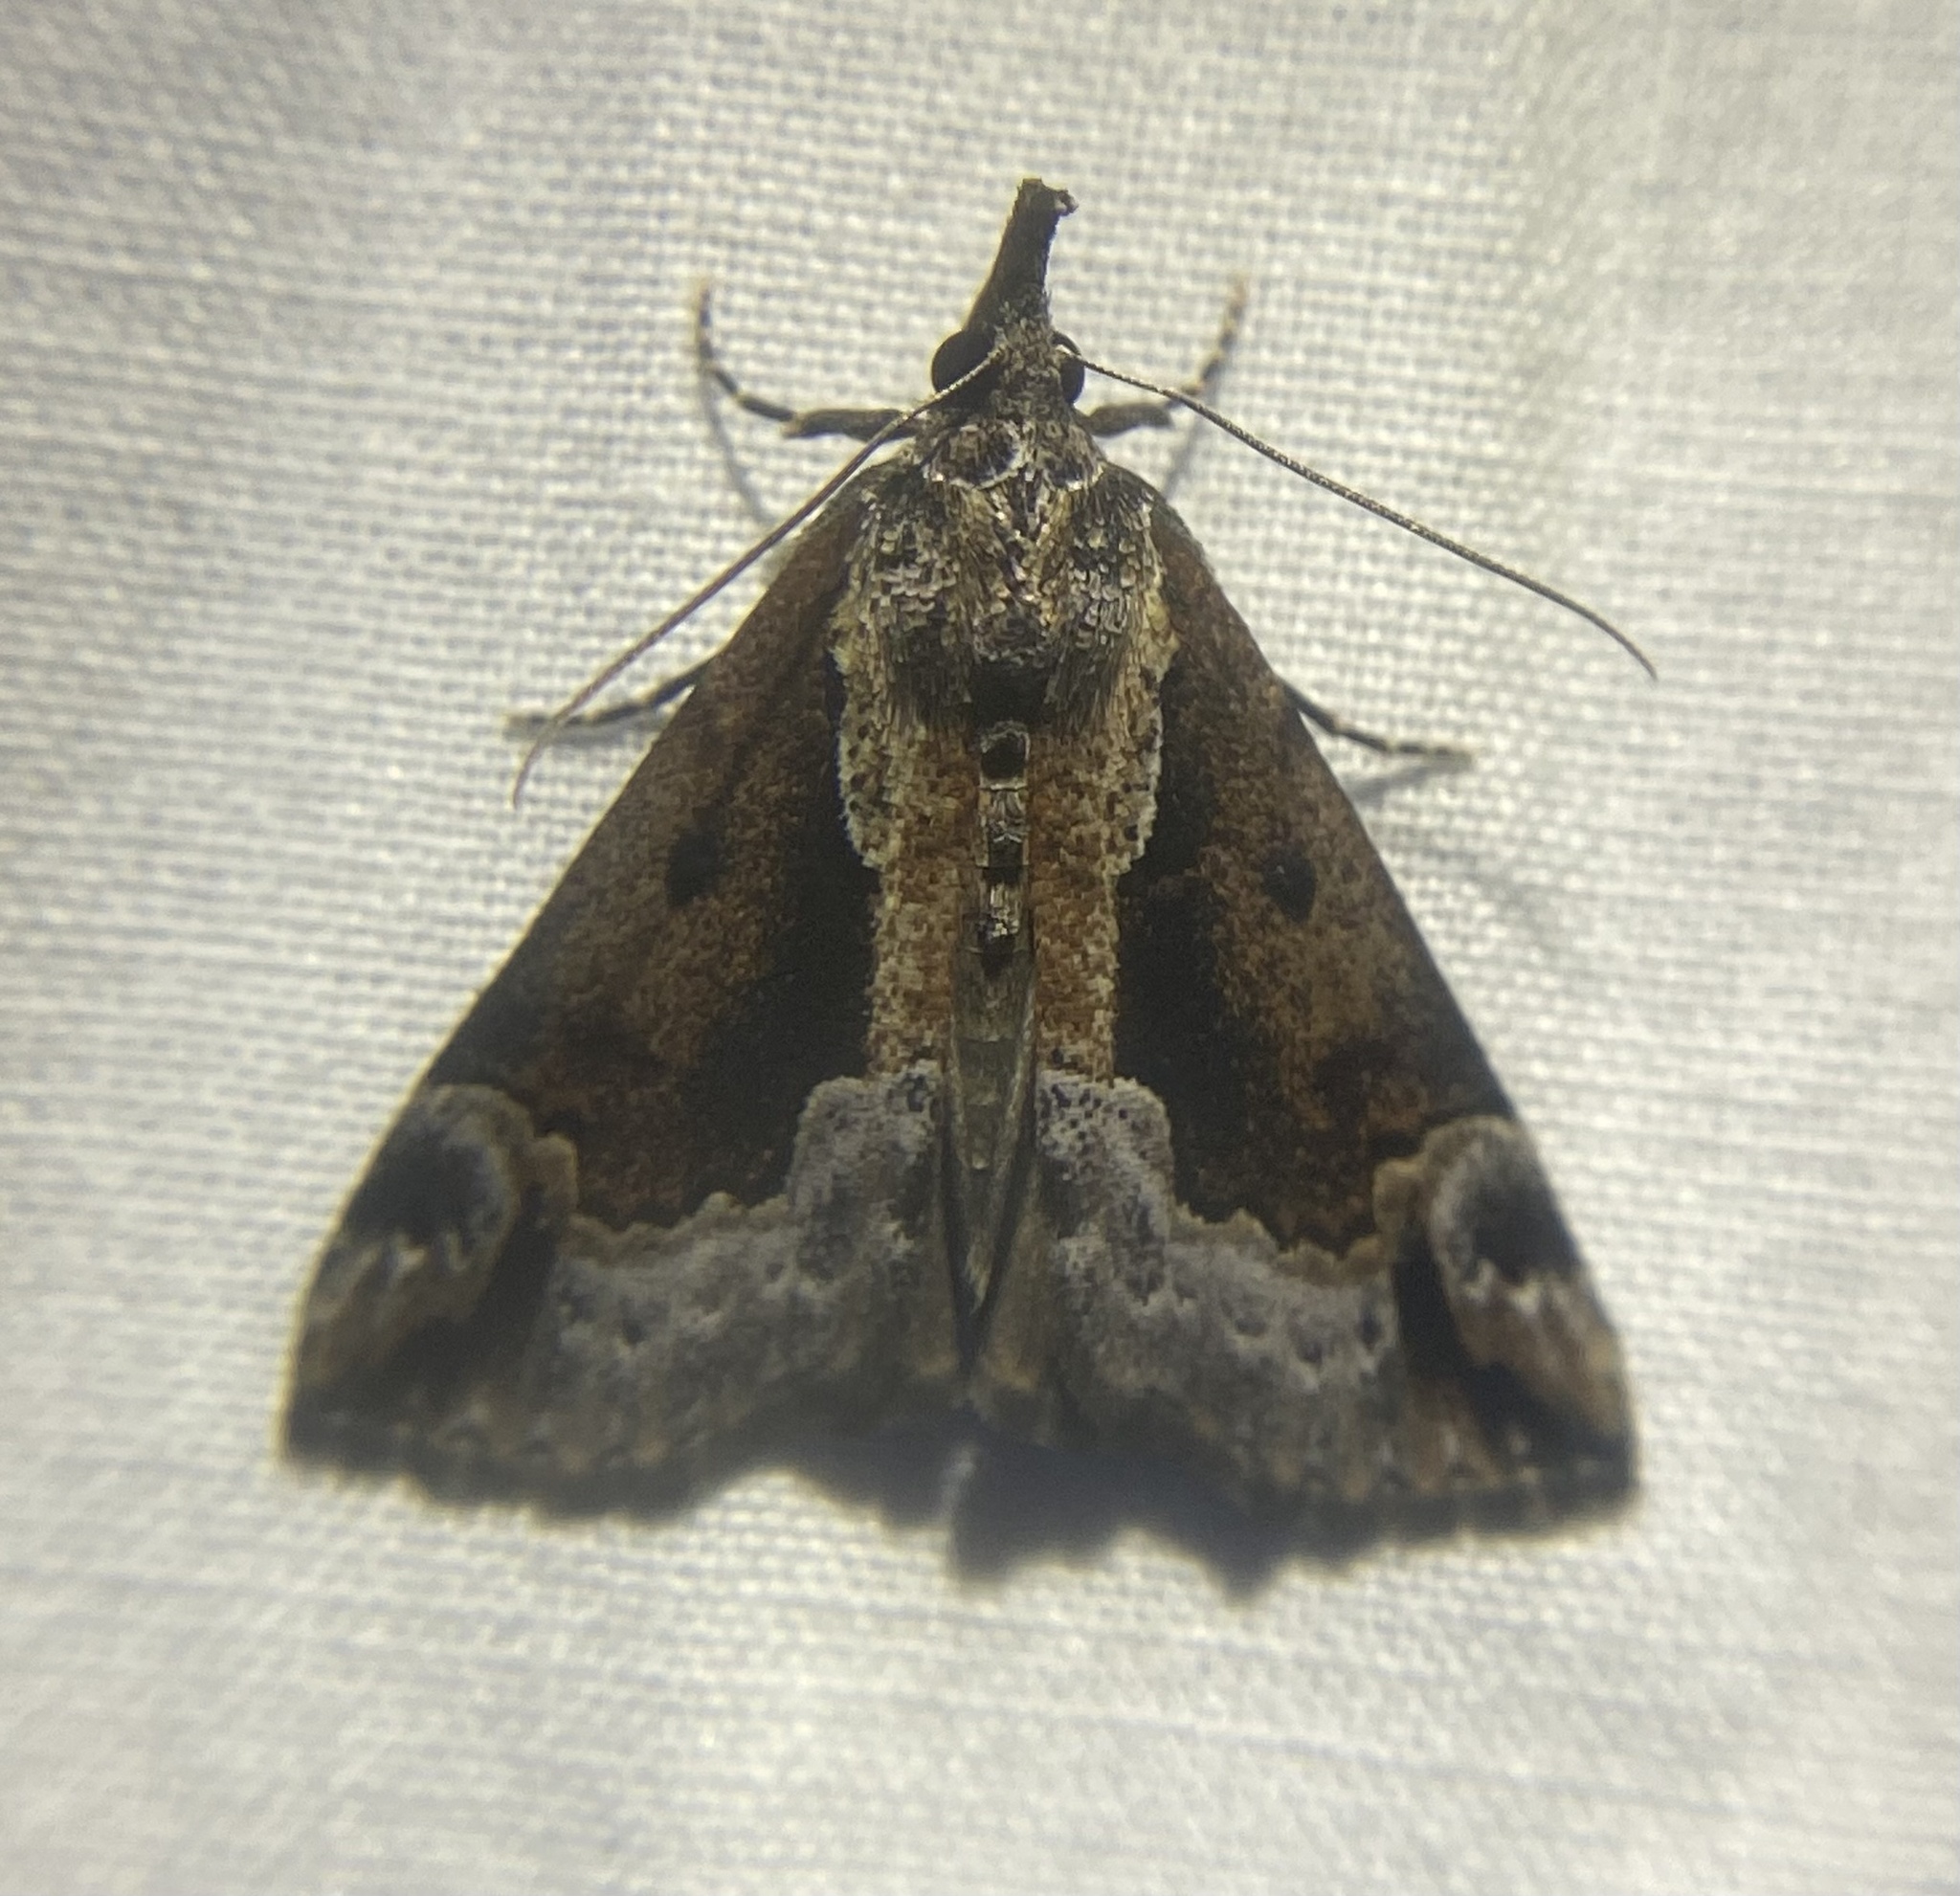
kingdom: Animalia
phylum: Arthropoda
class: Insecta
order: Lepidoptera
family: Erebidae
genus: Hypena
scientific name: Hypena baltimoralis
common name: Baltimore snout
